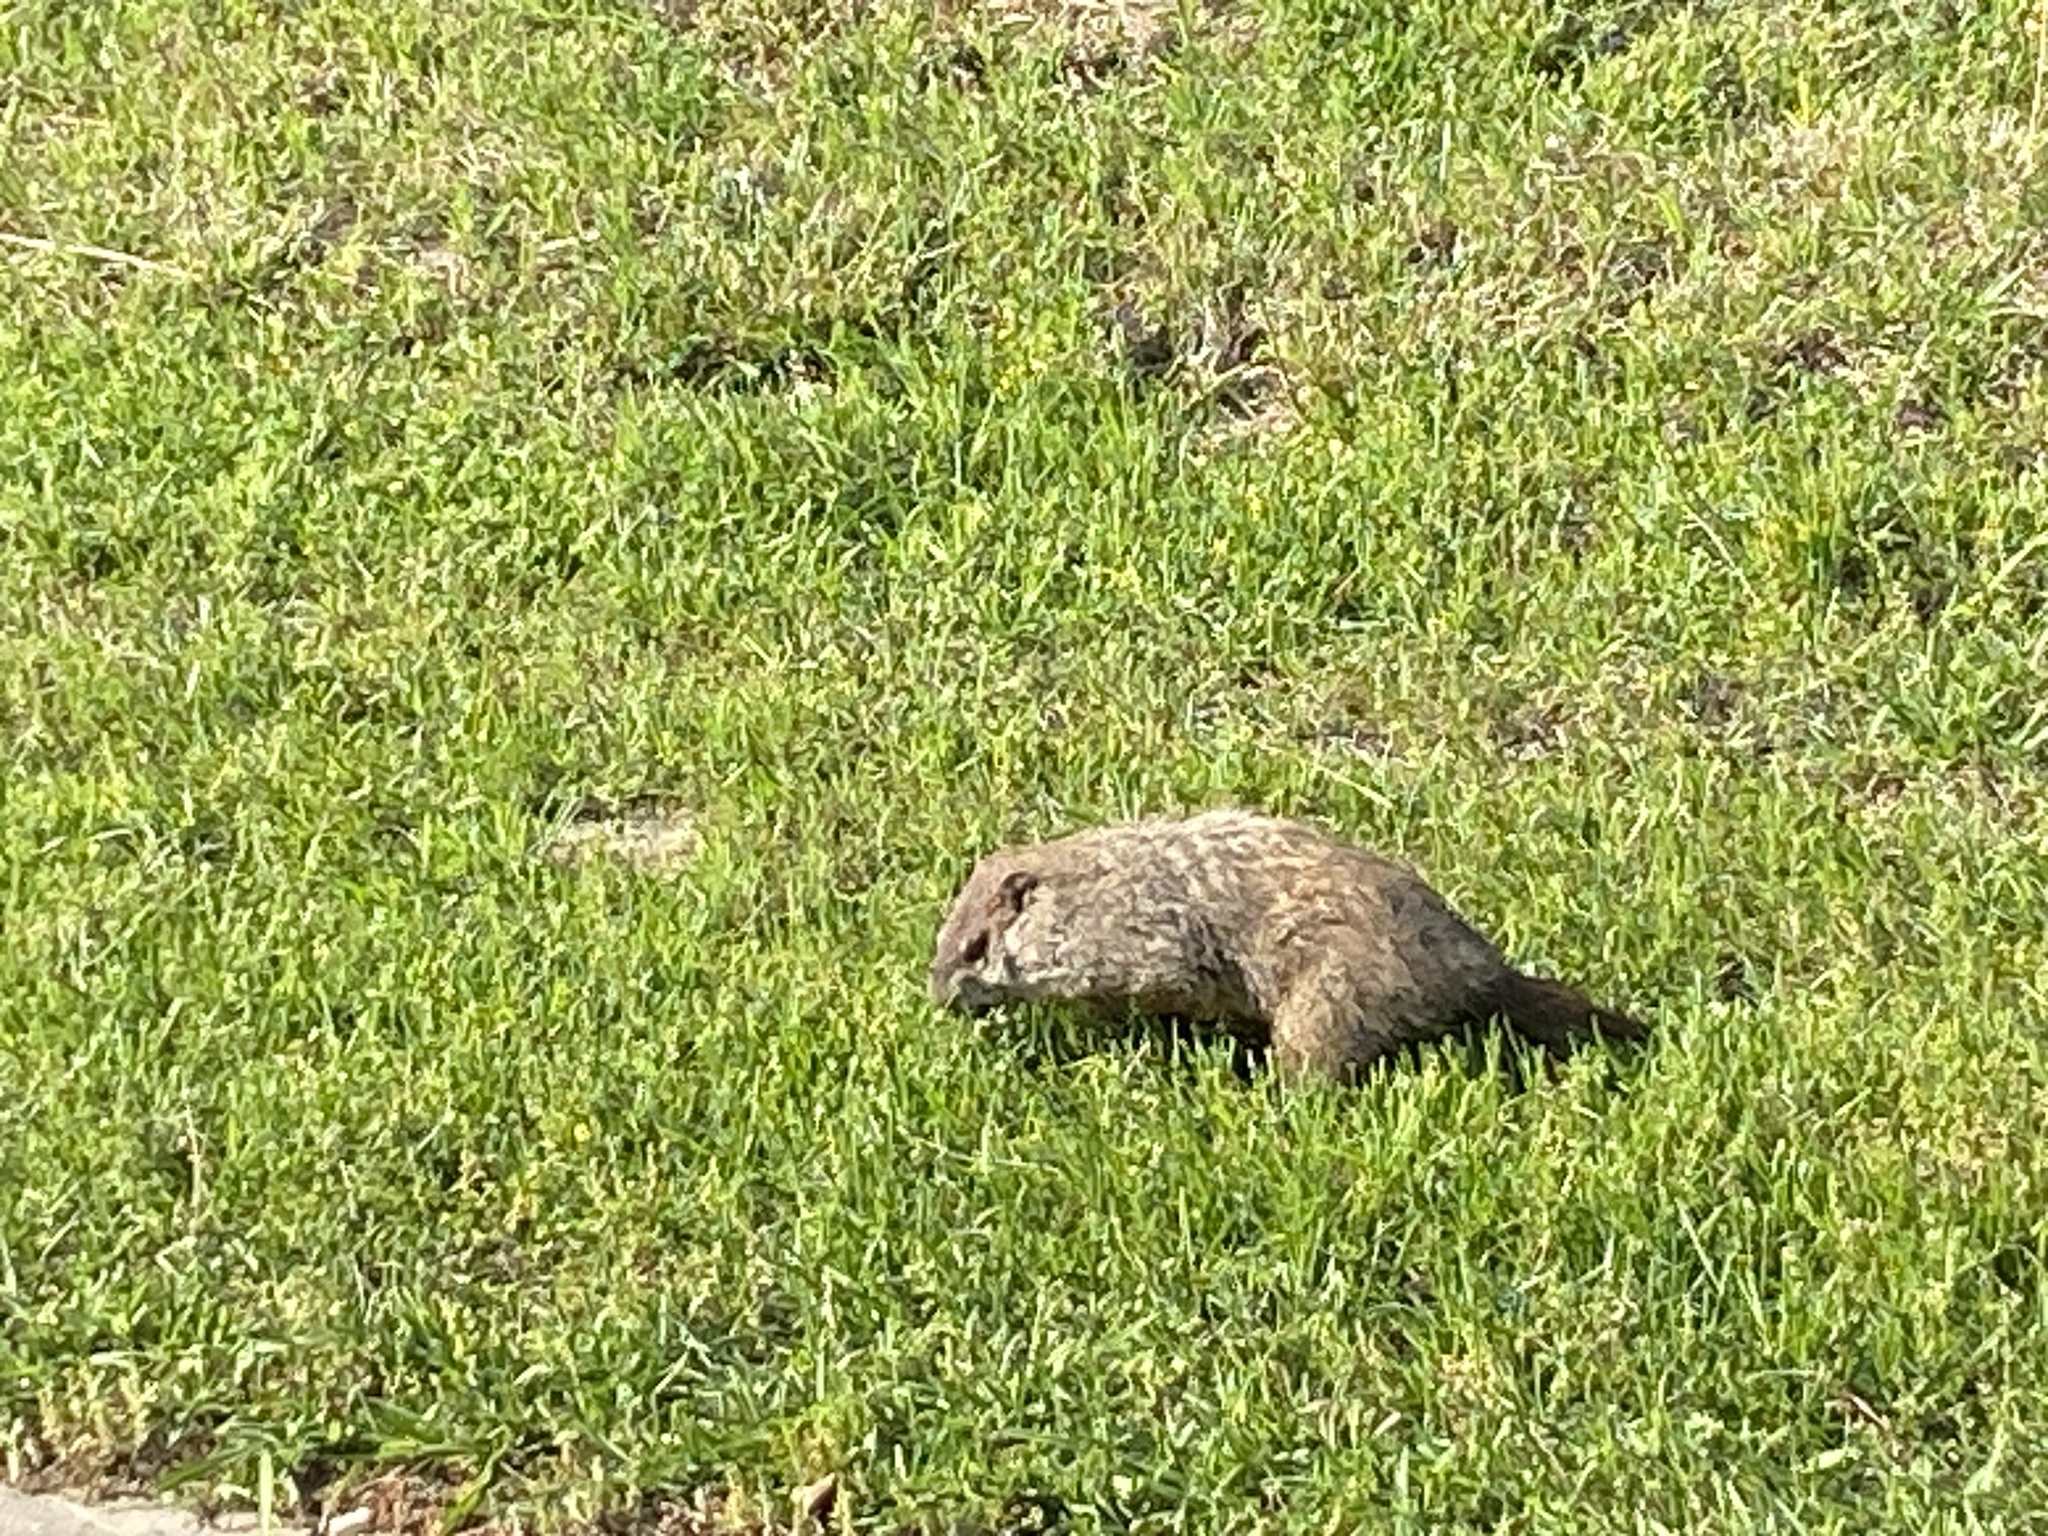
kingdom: Animalia
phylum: Chordata
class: Mammalia
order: Rodentia
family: Sciuridae
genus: Marmota
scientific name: Marmota monax
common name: Groundhog
